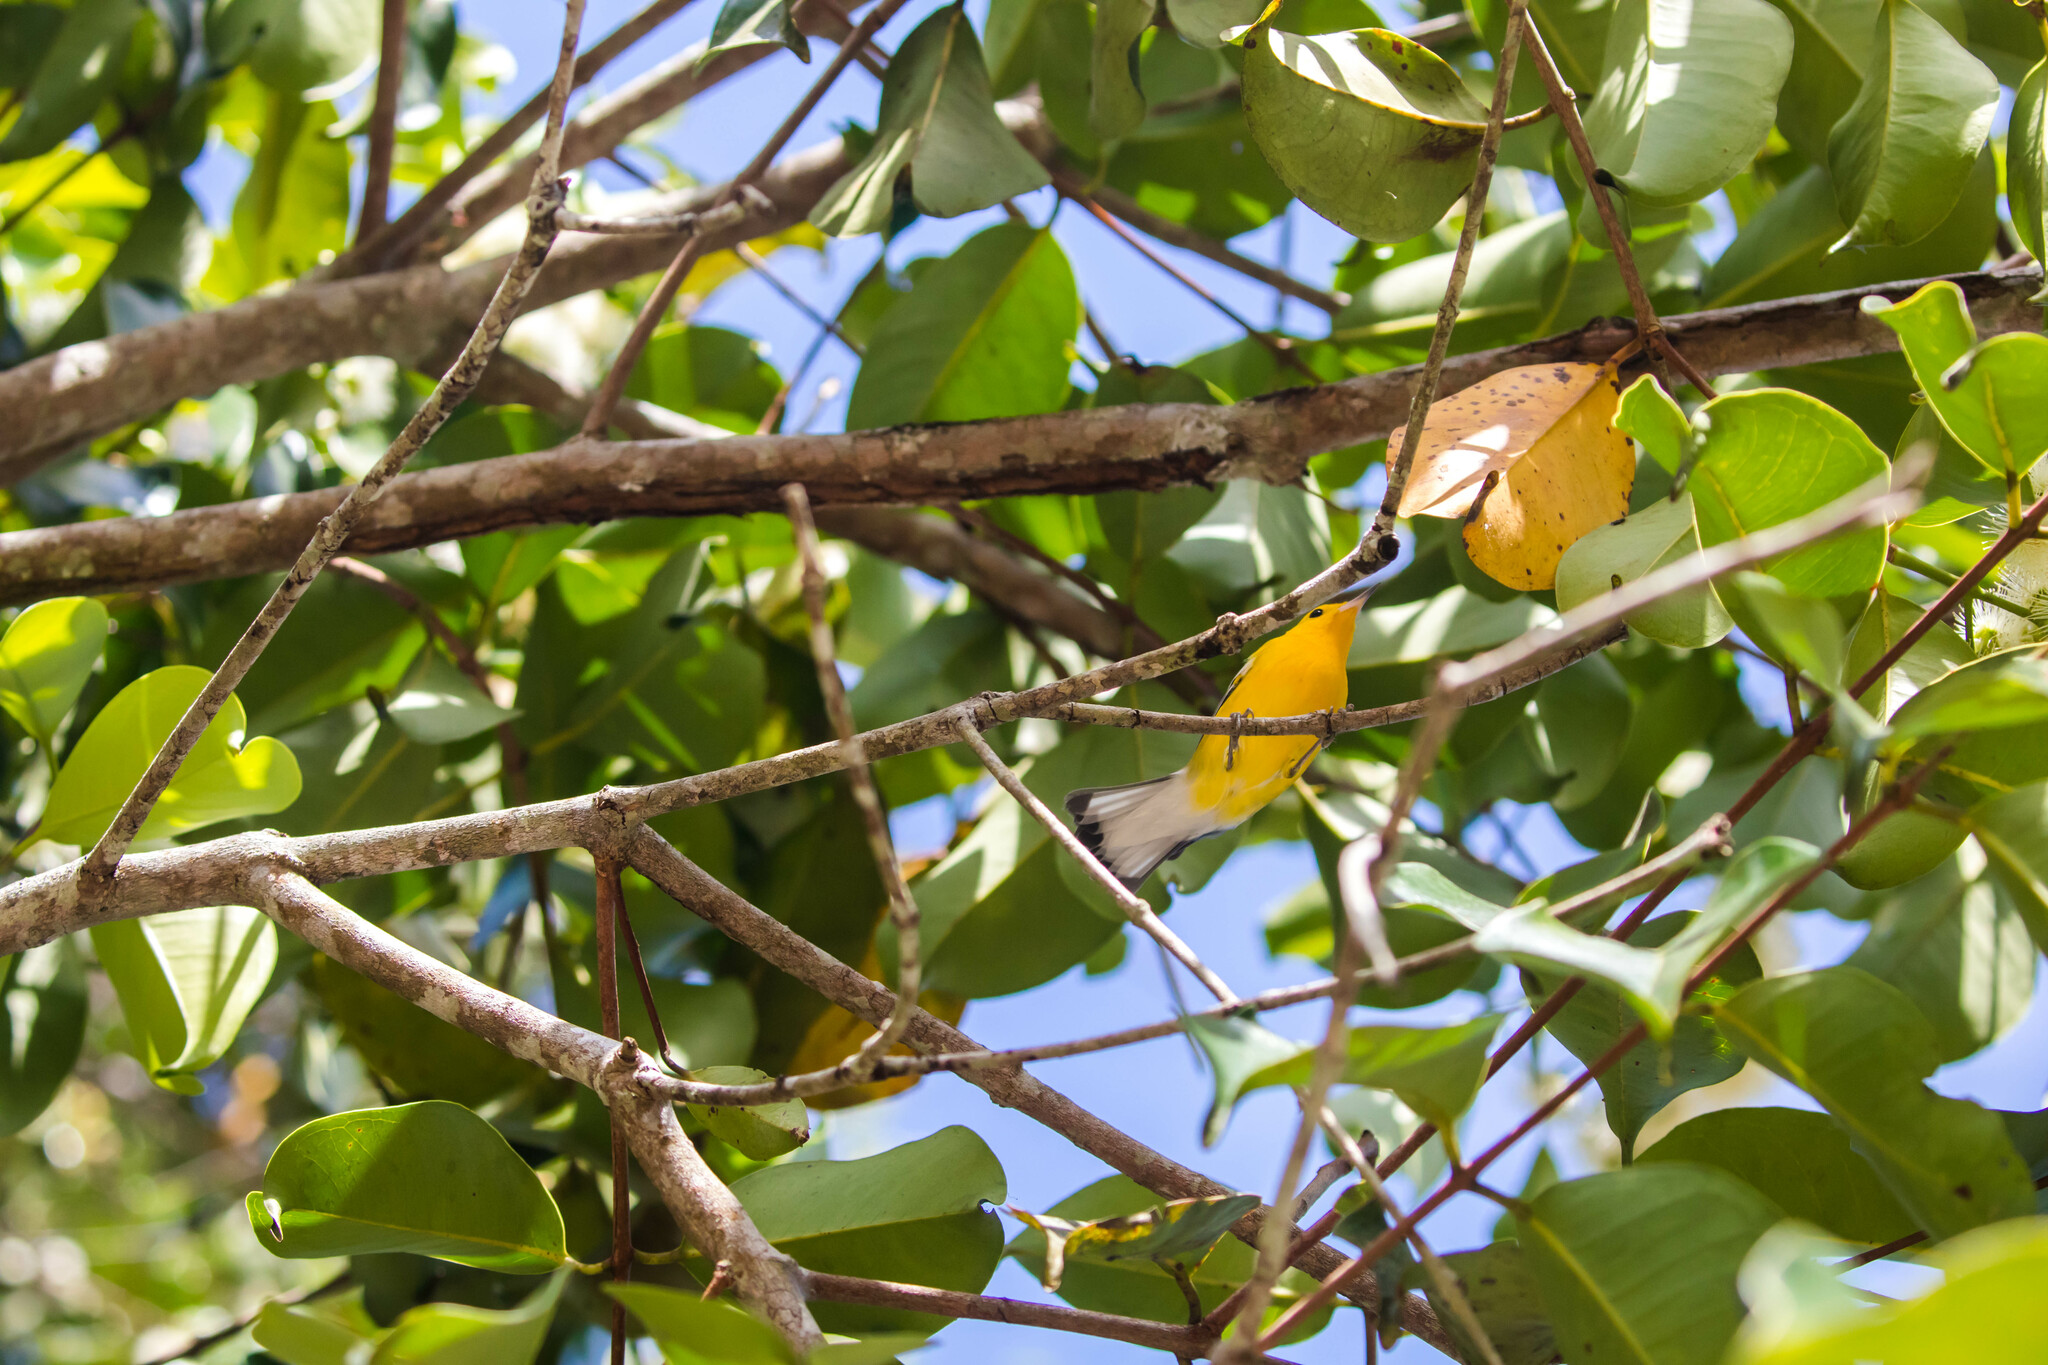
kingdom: Animalia
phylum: Chordata
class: Aves
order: Passeriformes
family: Parulidae
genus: Protonotaria
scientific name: Protonotaria citrea
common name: Prothonotary warbler
